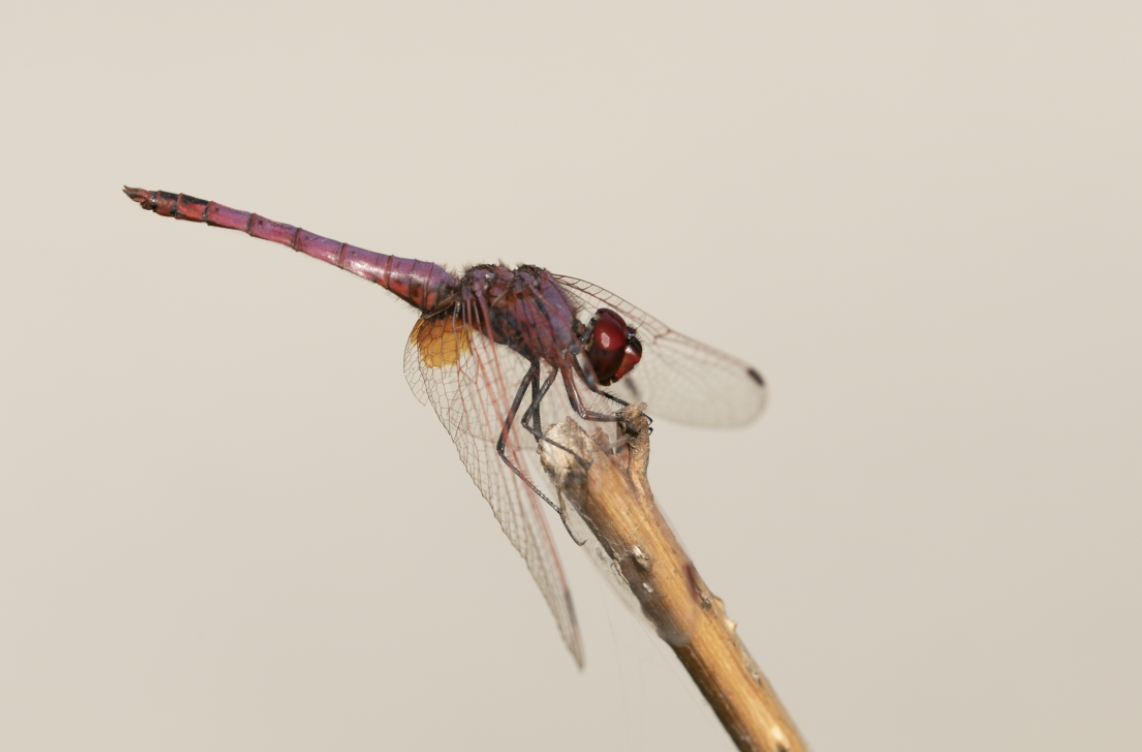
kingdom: Animalia
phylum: Arthropoda
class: Insecta
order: Odonata
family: Libellulidae
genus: Trithemis
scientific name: Trithemis annulata
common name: Violet dropwing
